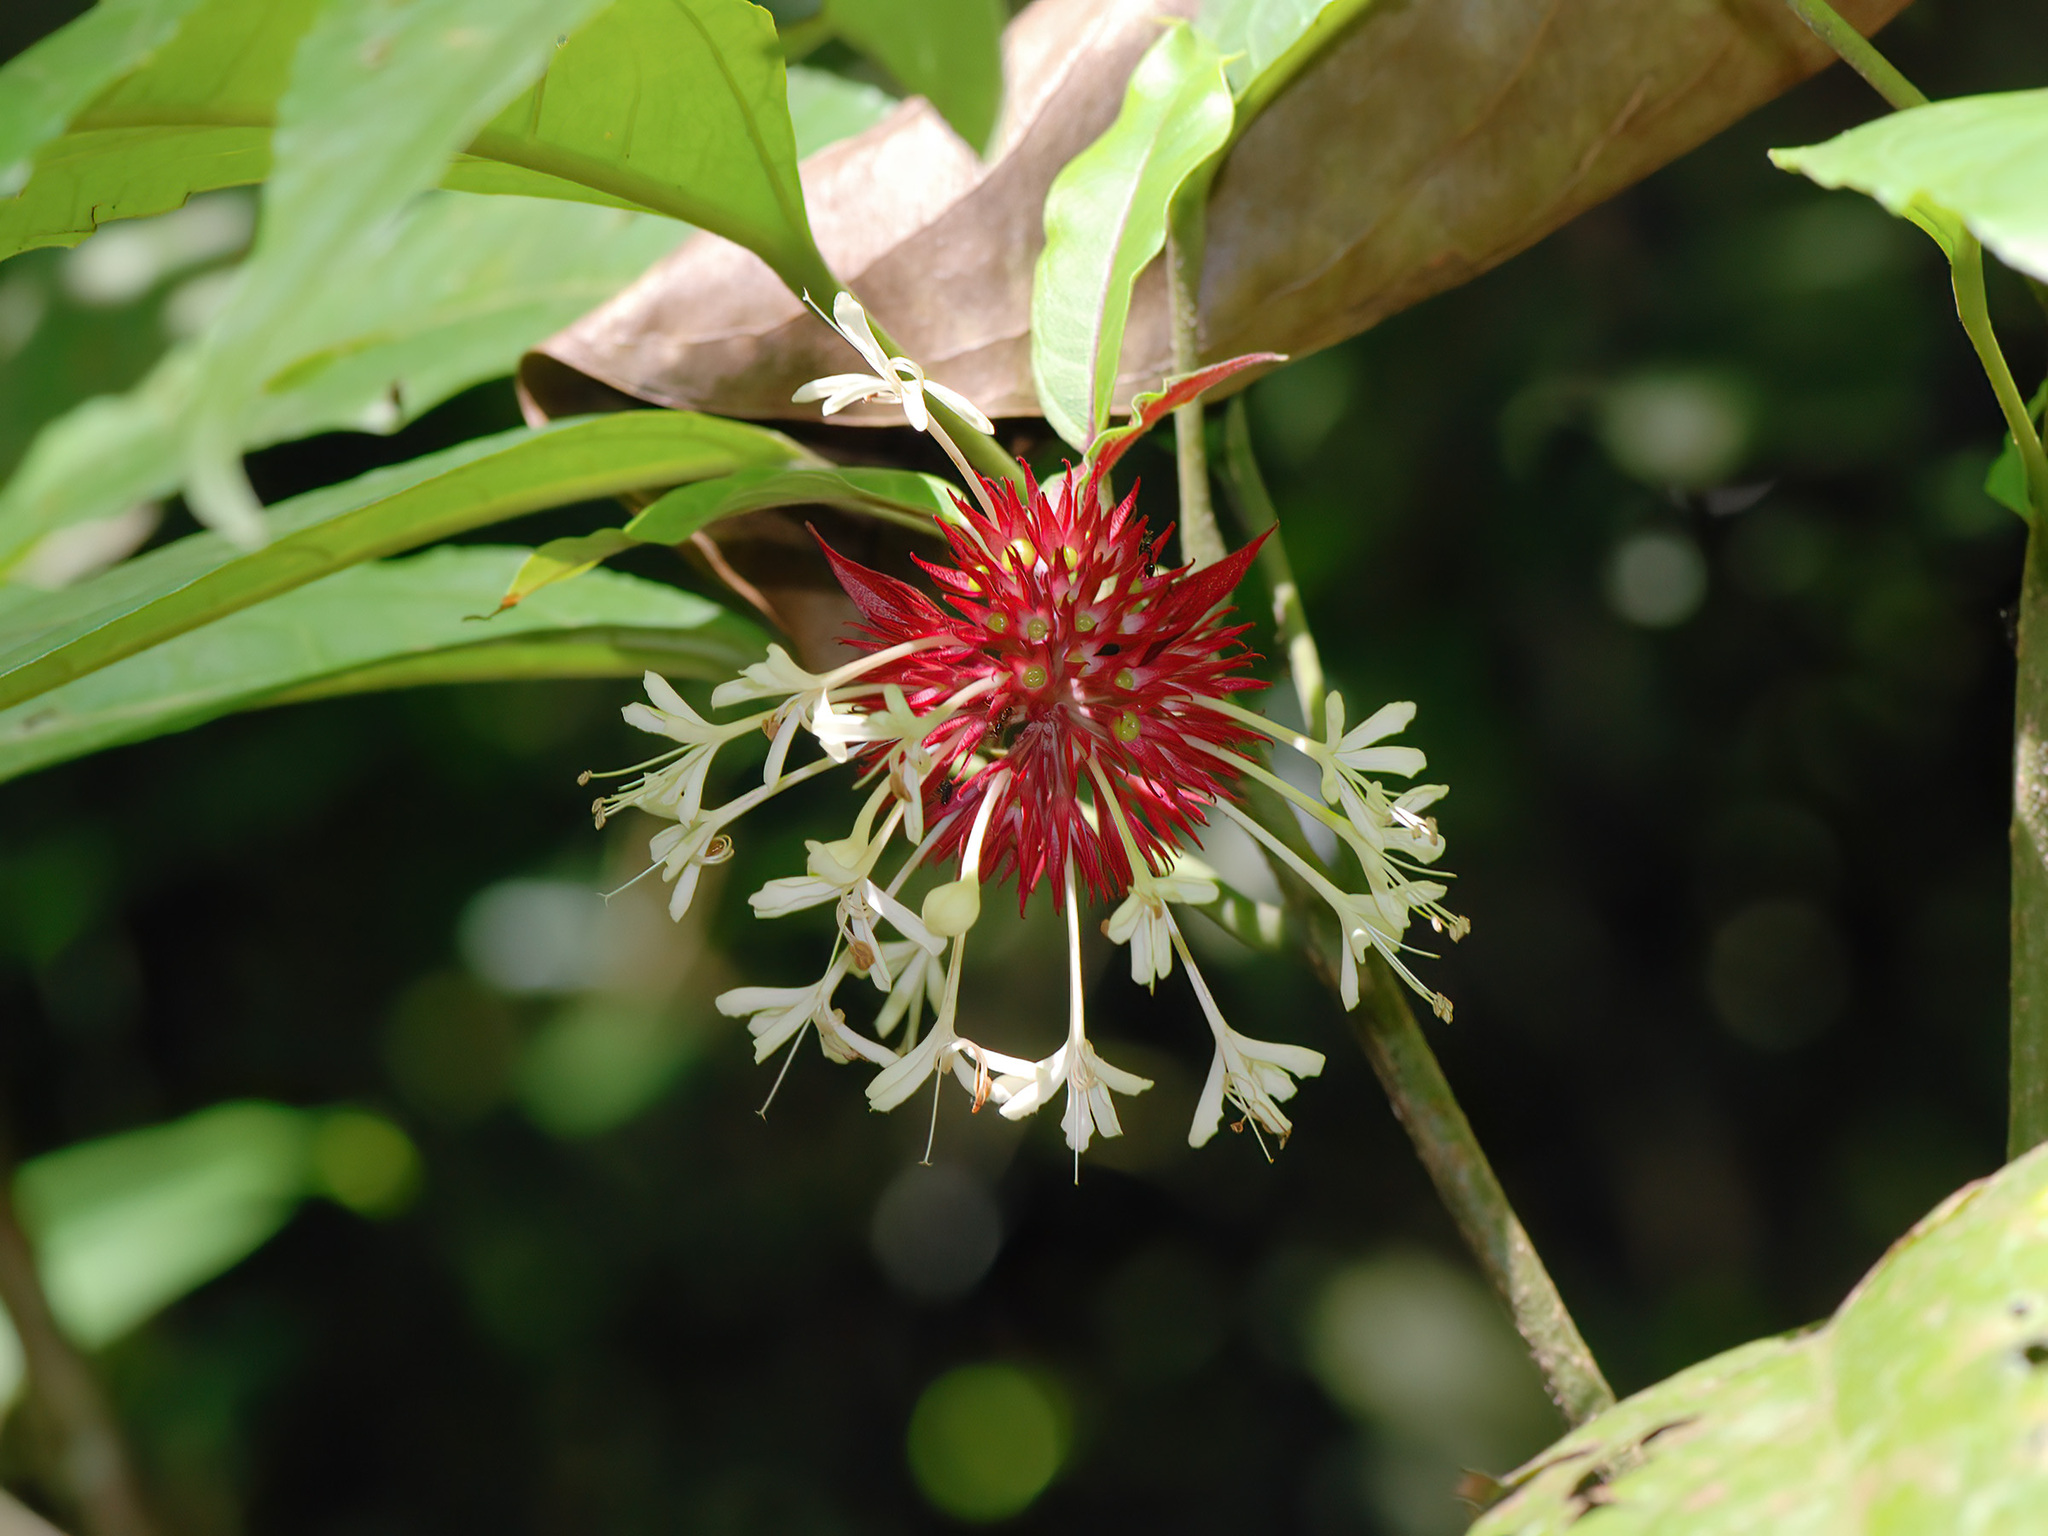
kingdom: Plantae
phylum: Tracheophyta
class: Magnoliopsida
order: Lamiales
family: Lamiaceae
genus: Clerodendrum
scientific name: Clerodendrum deflexum
